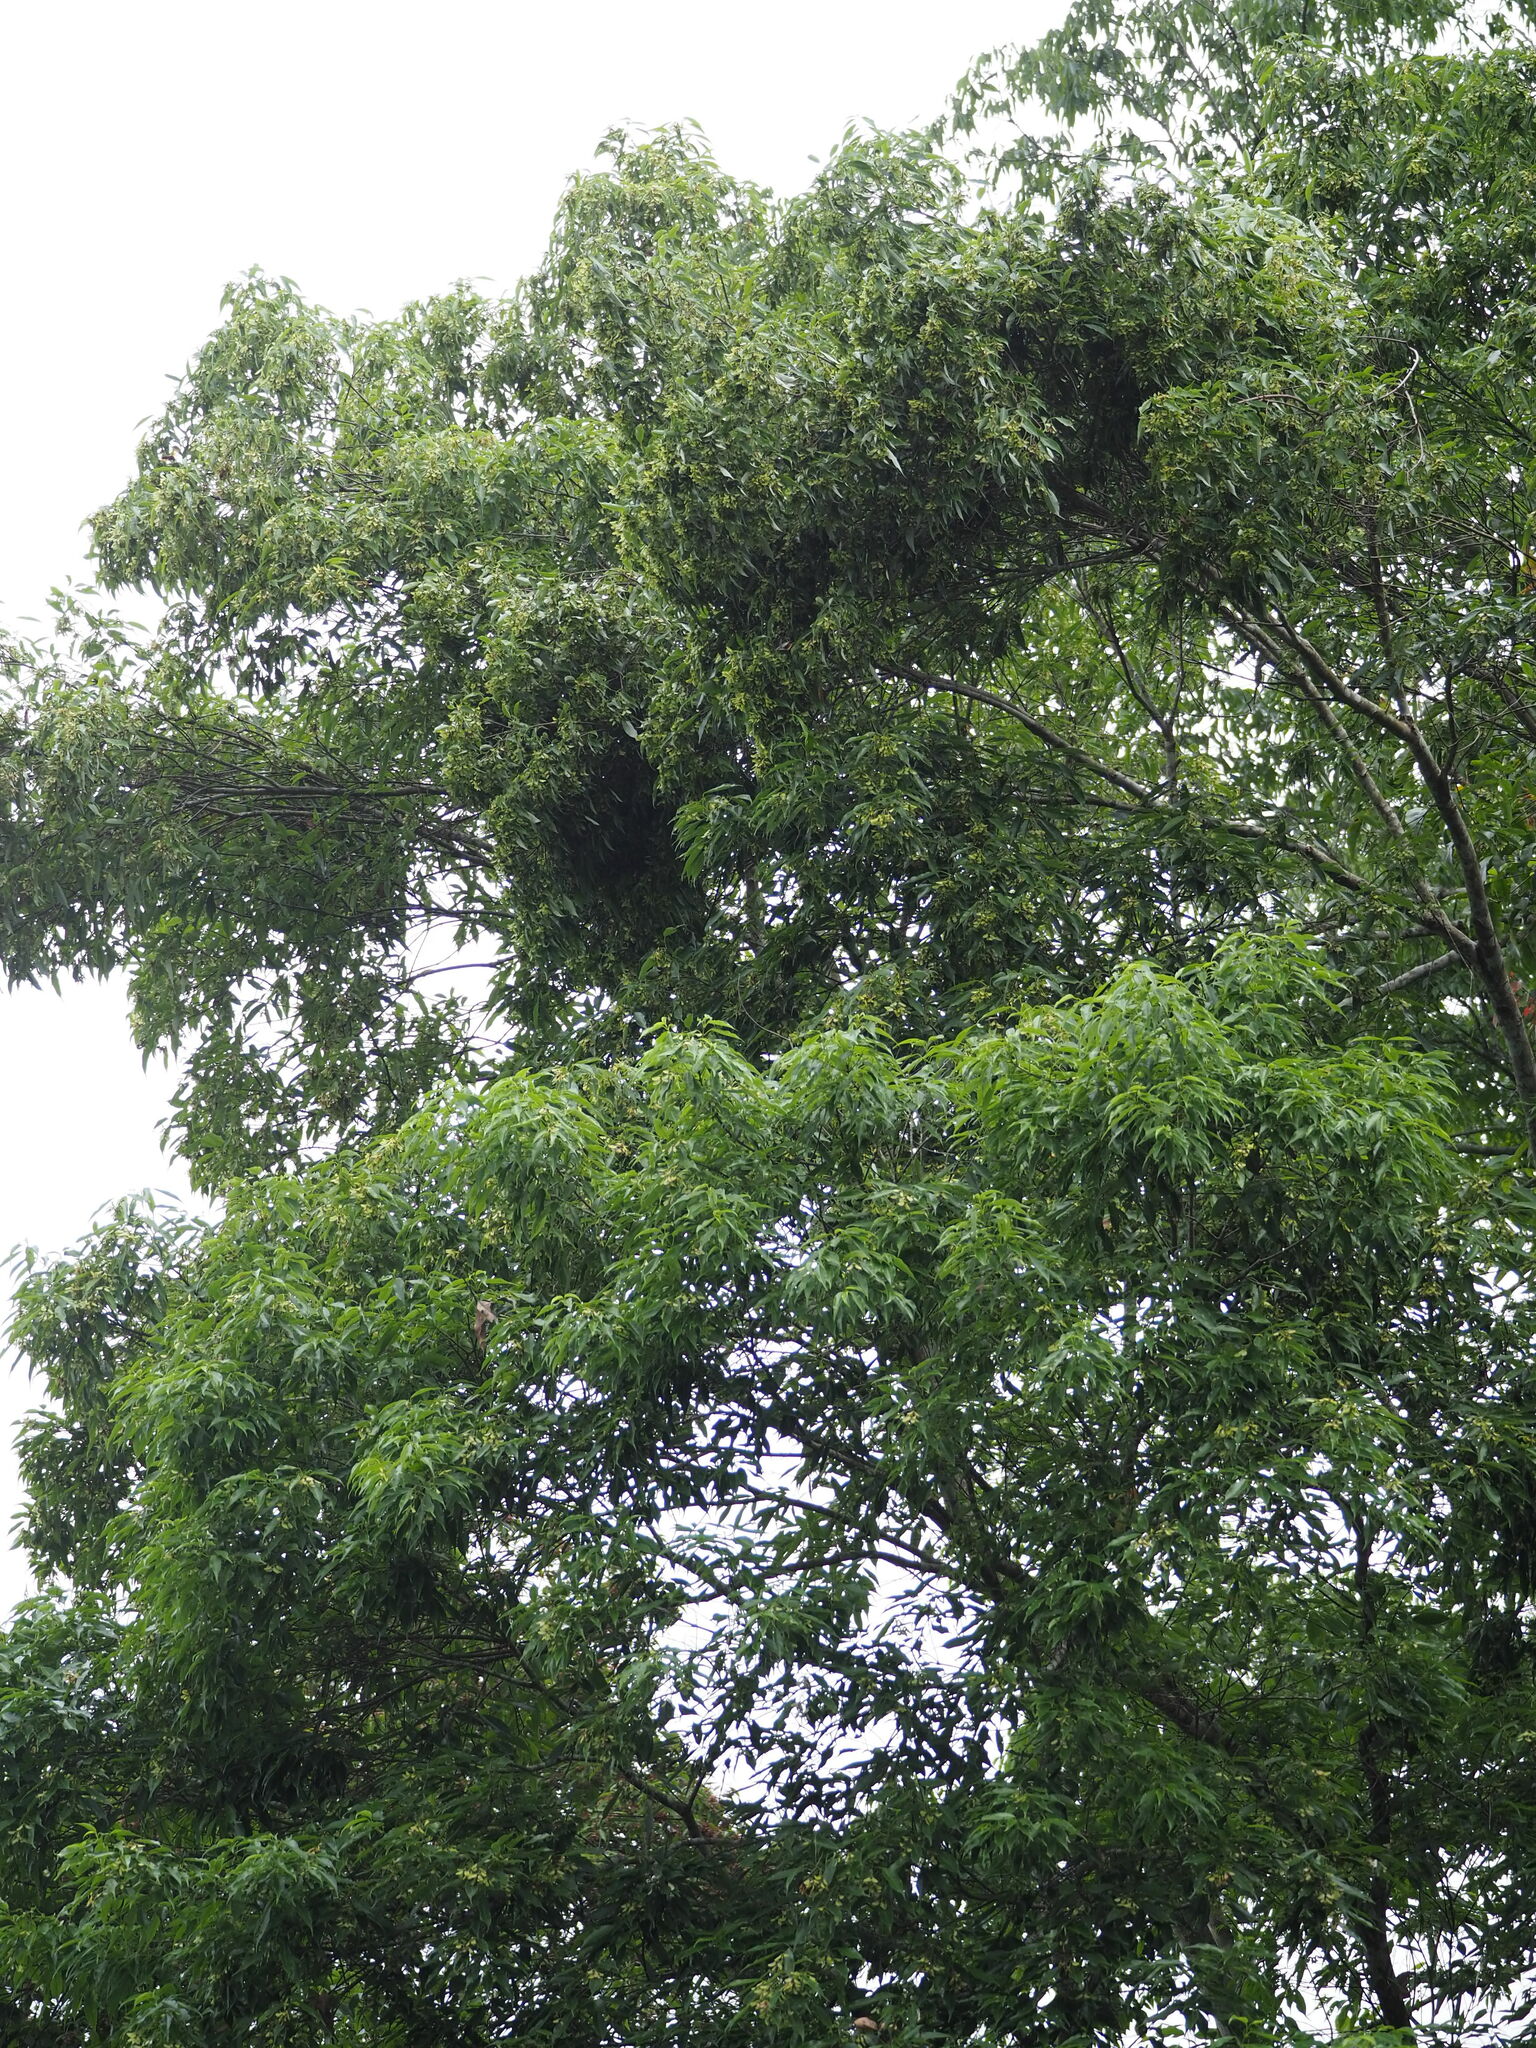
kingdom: Plantae
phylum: Tracheophyta
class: Magnoliopsida
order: Sapindales
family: Sapindaceae
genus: Acer
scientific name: Acer oblongum
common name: Himalayan maple
